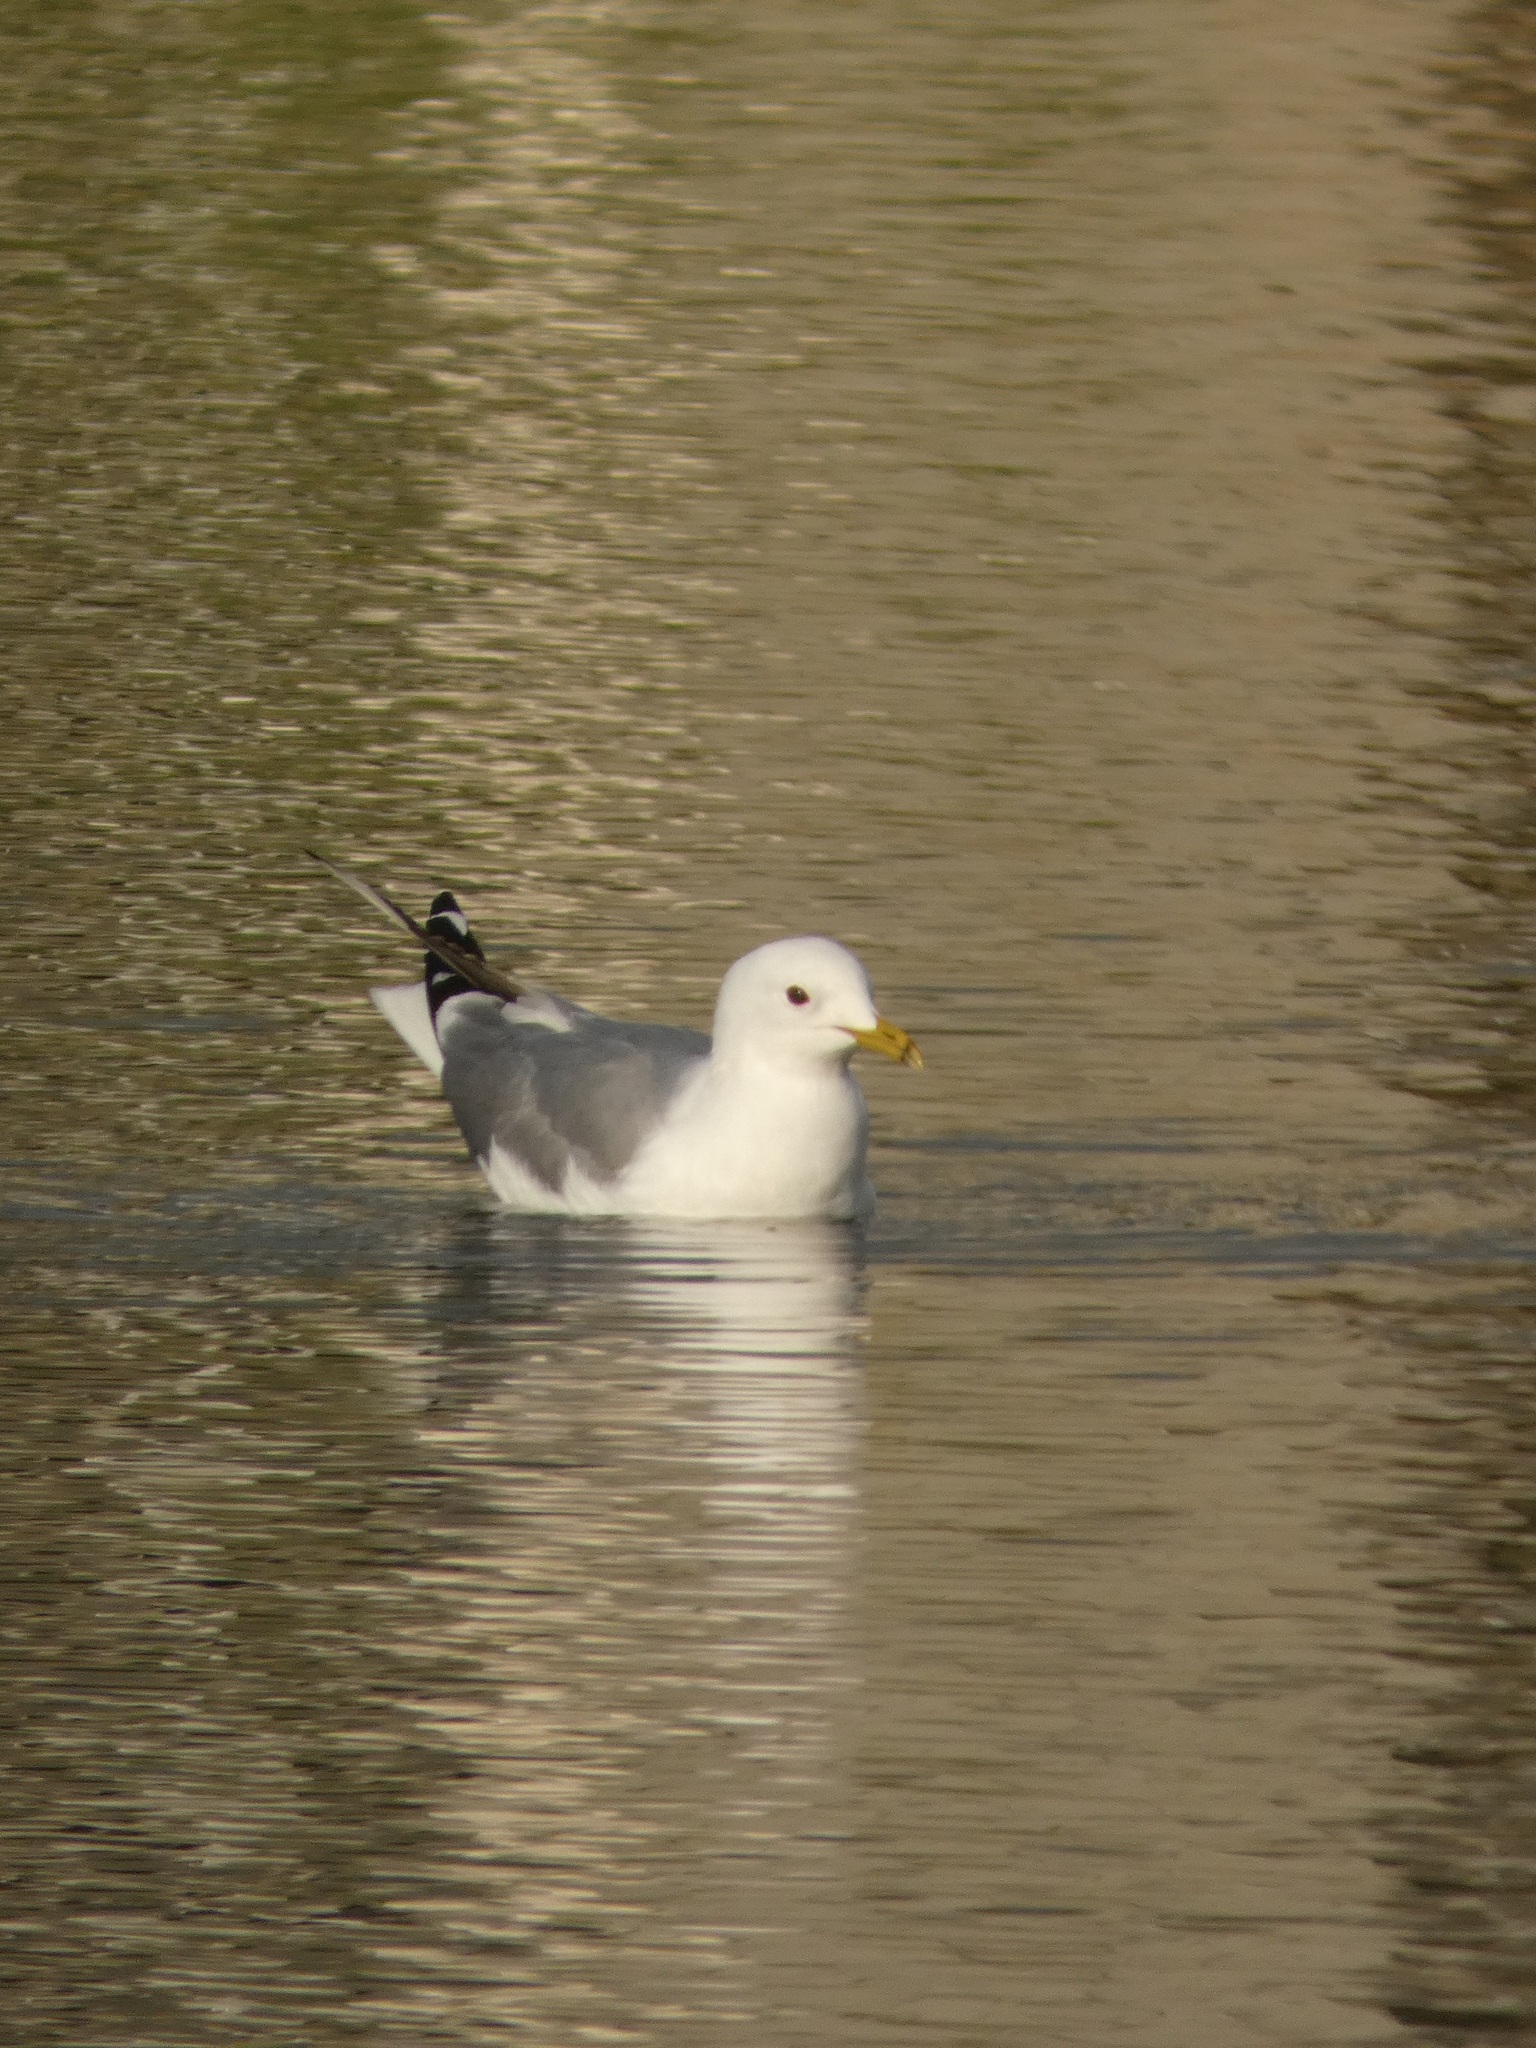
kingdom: Animalia
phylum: Chordata
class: Aves
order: Charadriiformes
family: Laridae
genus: Larus
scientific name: Larus canus
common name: Mew gull
